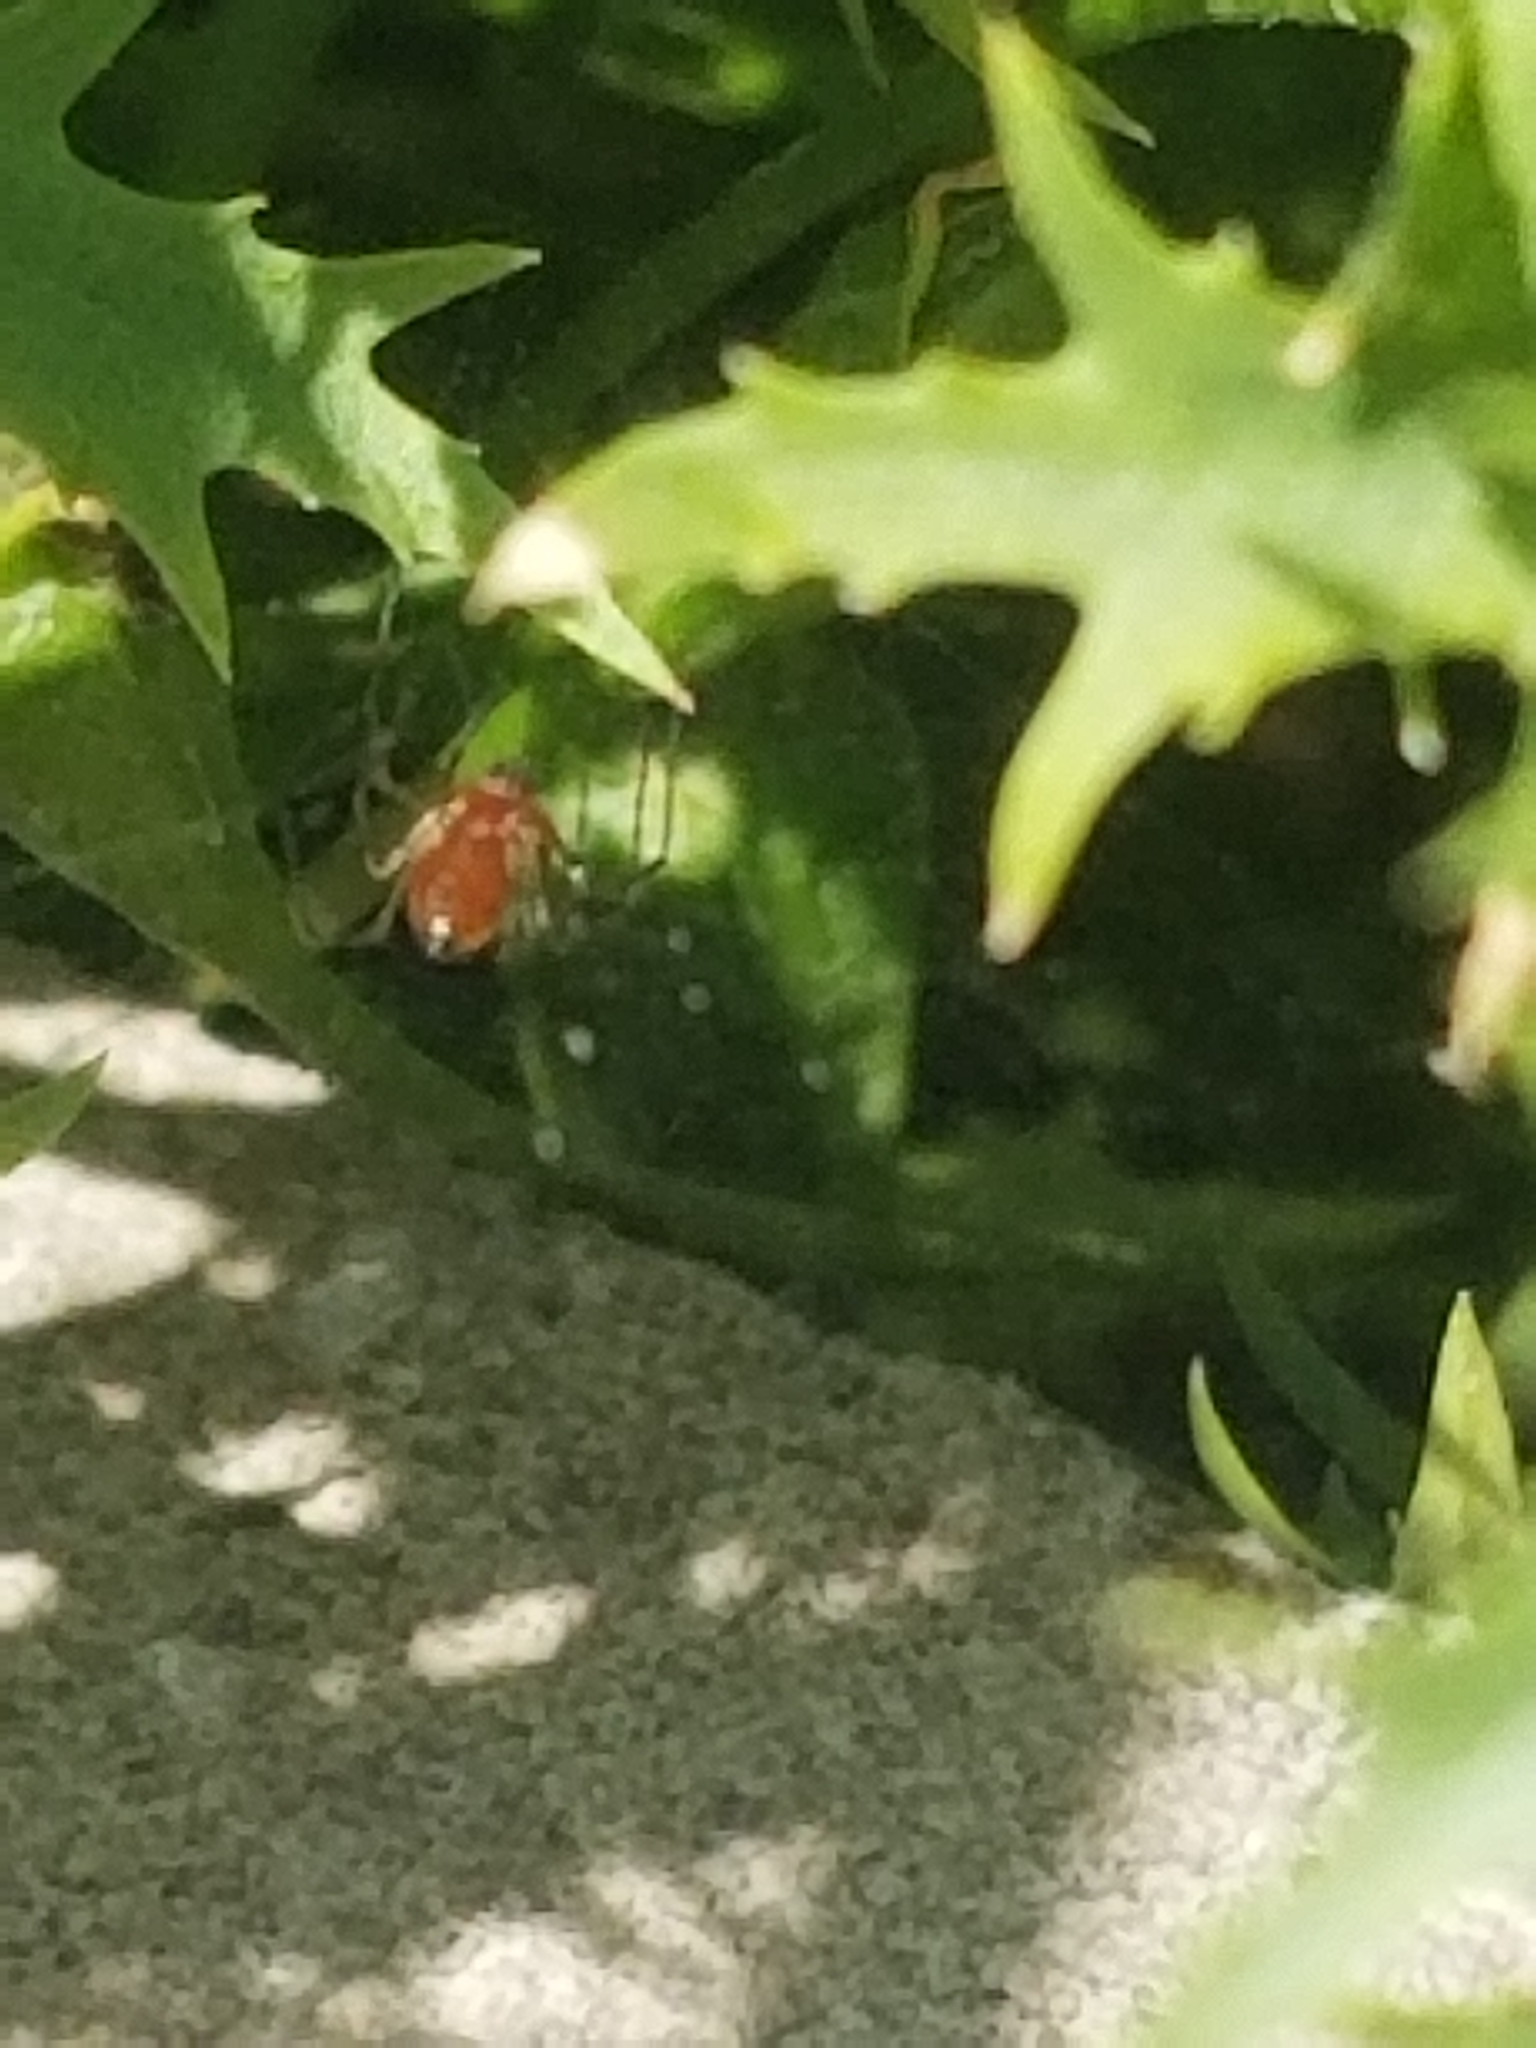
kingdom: Animalia
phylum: Arthropoda
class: Arachnida
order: Araneae
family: Linyphiidae
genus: Florinda
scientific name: Florinda coccinea
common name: Black-tailed red sheetweaver
